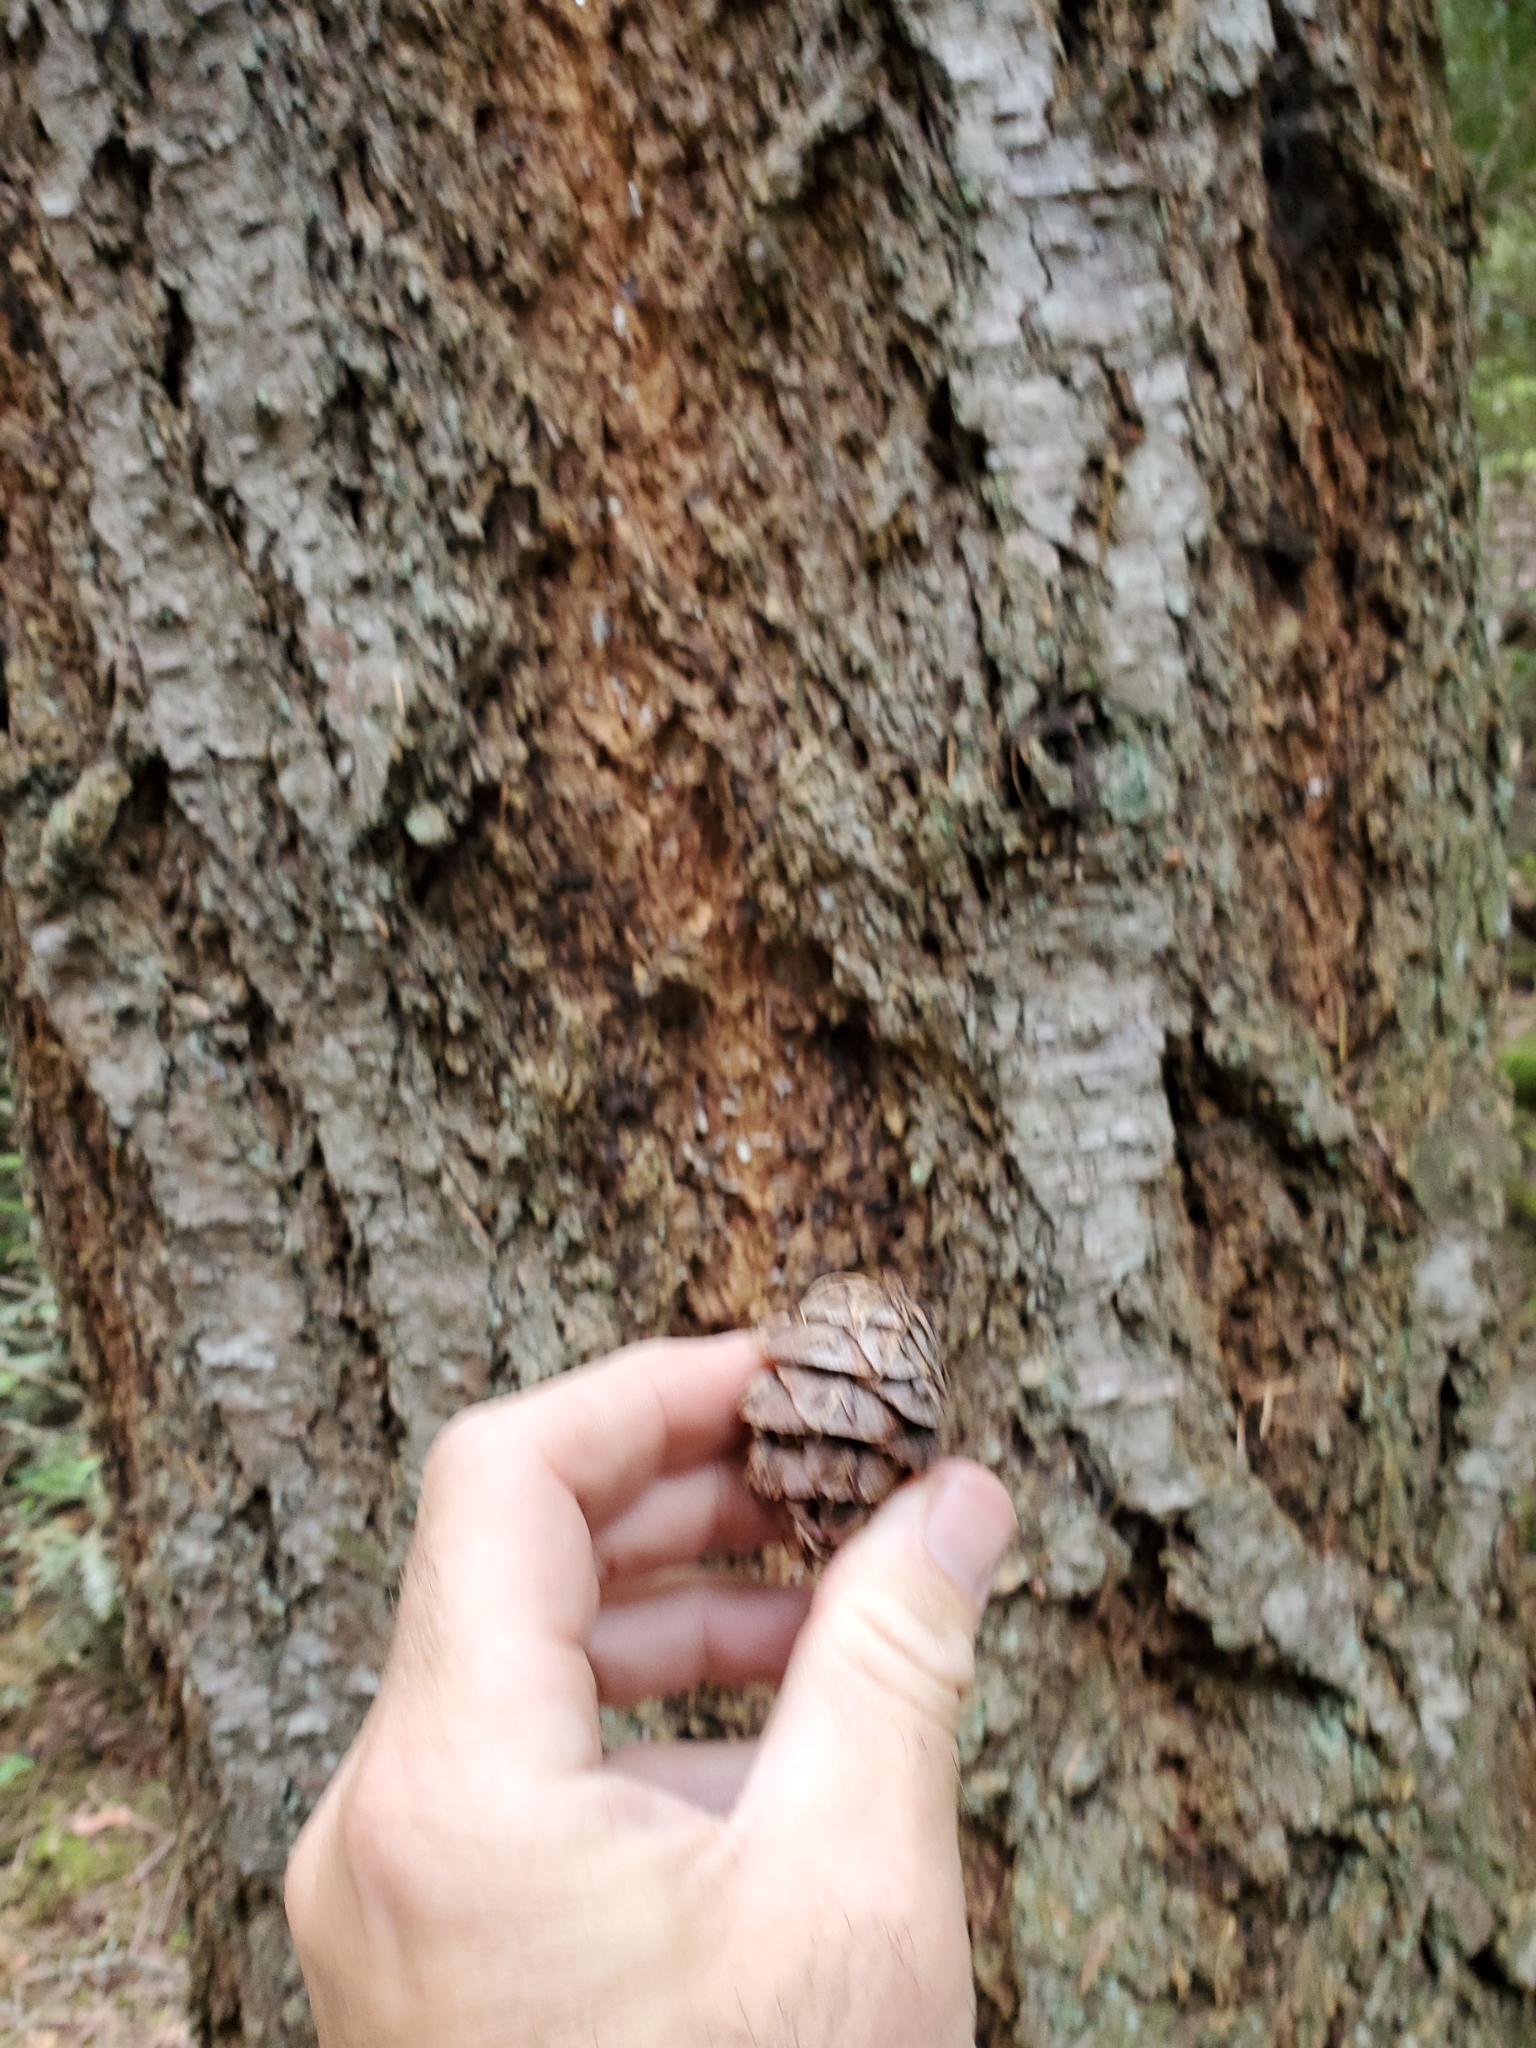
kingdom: Plantae
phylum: Tracheophyta
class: Pinopsida
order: Pinales
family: Pinaceae
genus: Pseudotsuga
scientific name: Pseudotsuga menziesii
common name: Douglas fir
